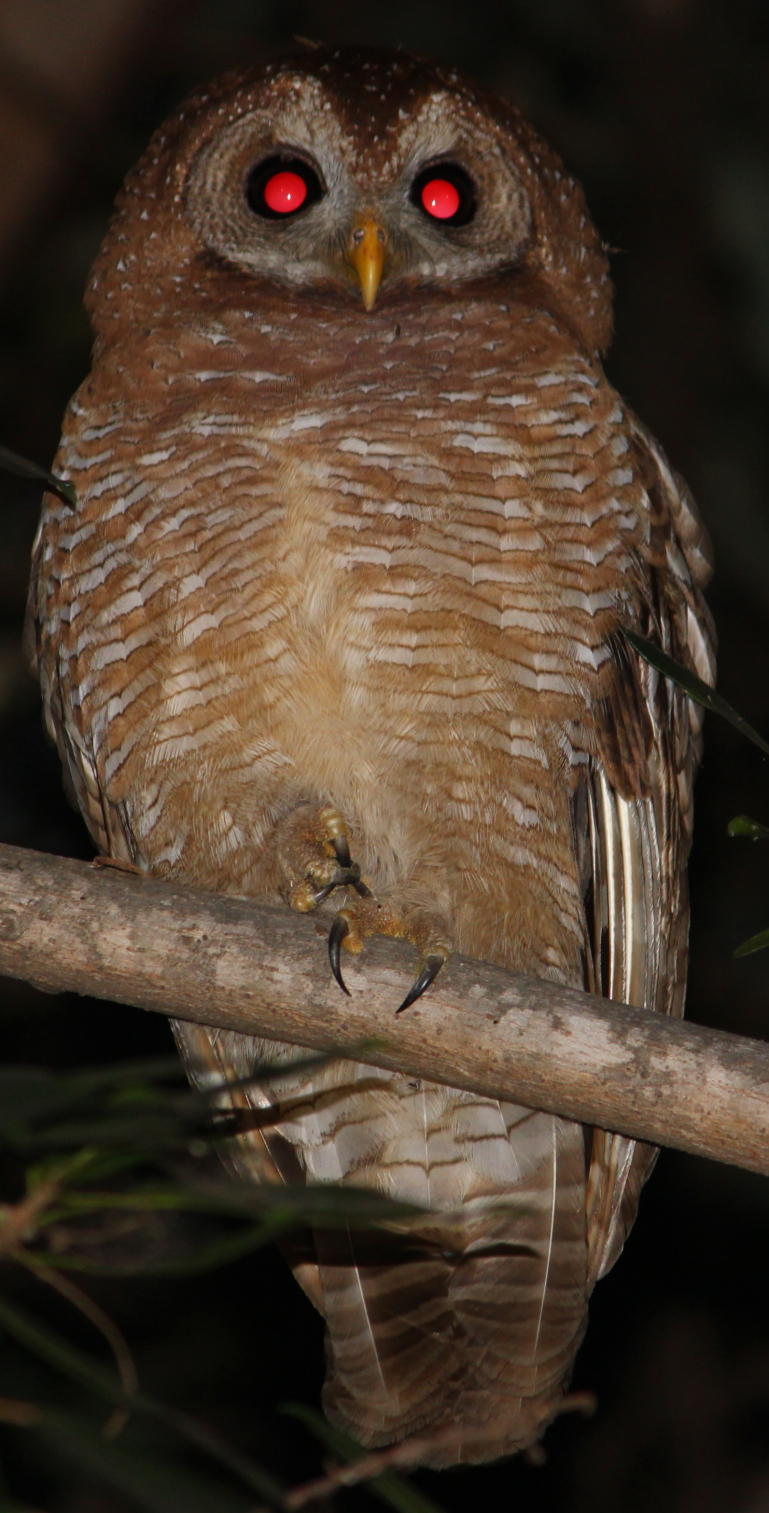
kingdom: Animalia
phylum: Chordata
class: Aves
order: Strigiformes
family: Strigidae
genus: Strix
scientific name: Strix woodfordii
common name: African wood owl
